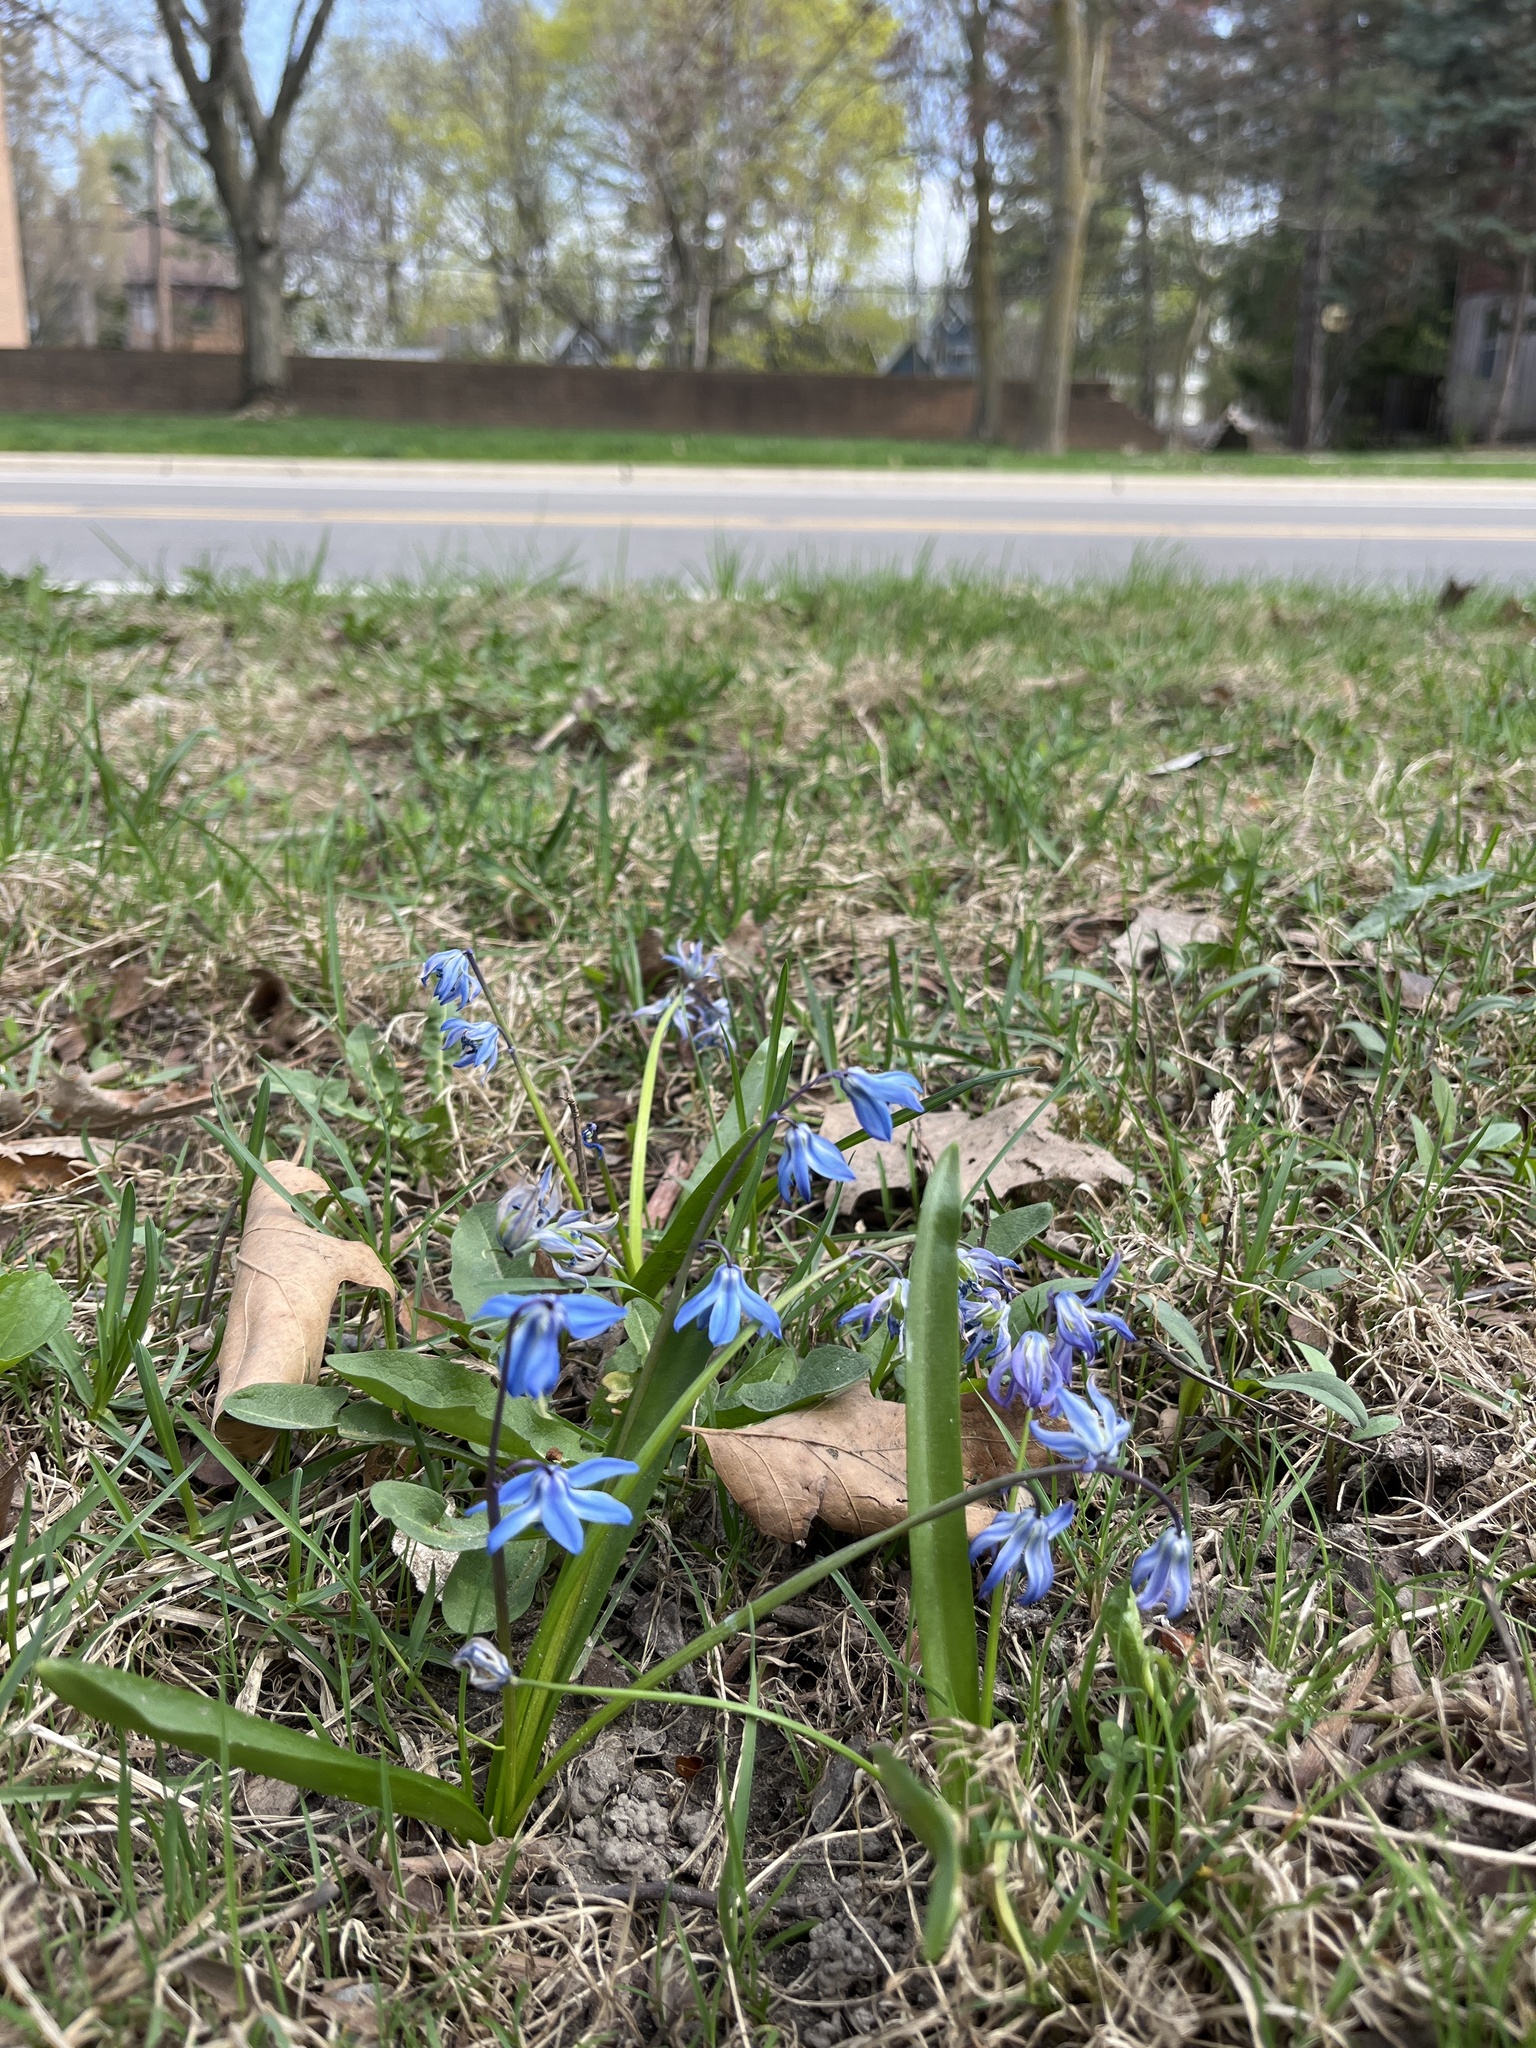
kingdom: Plantae
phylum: Tracheophyta
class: Liliopsida
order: Asparagales
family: Asparagaceae
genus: Scilla
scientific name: Scilla siberica
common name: Siberian squill
